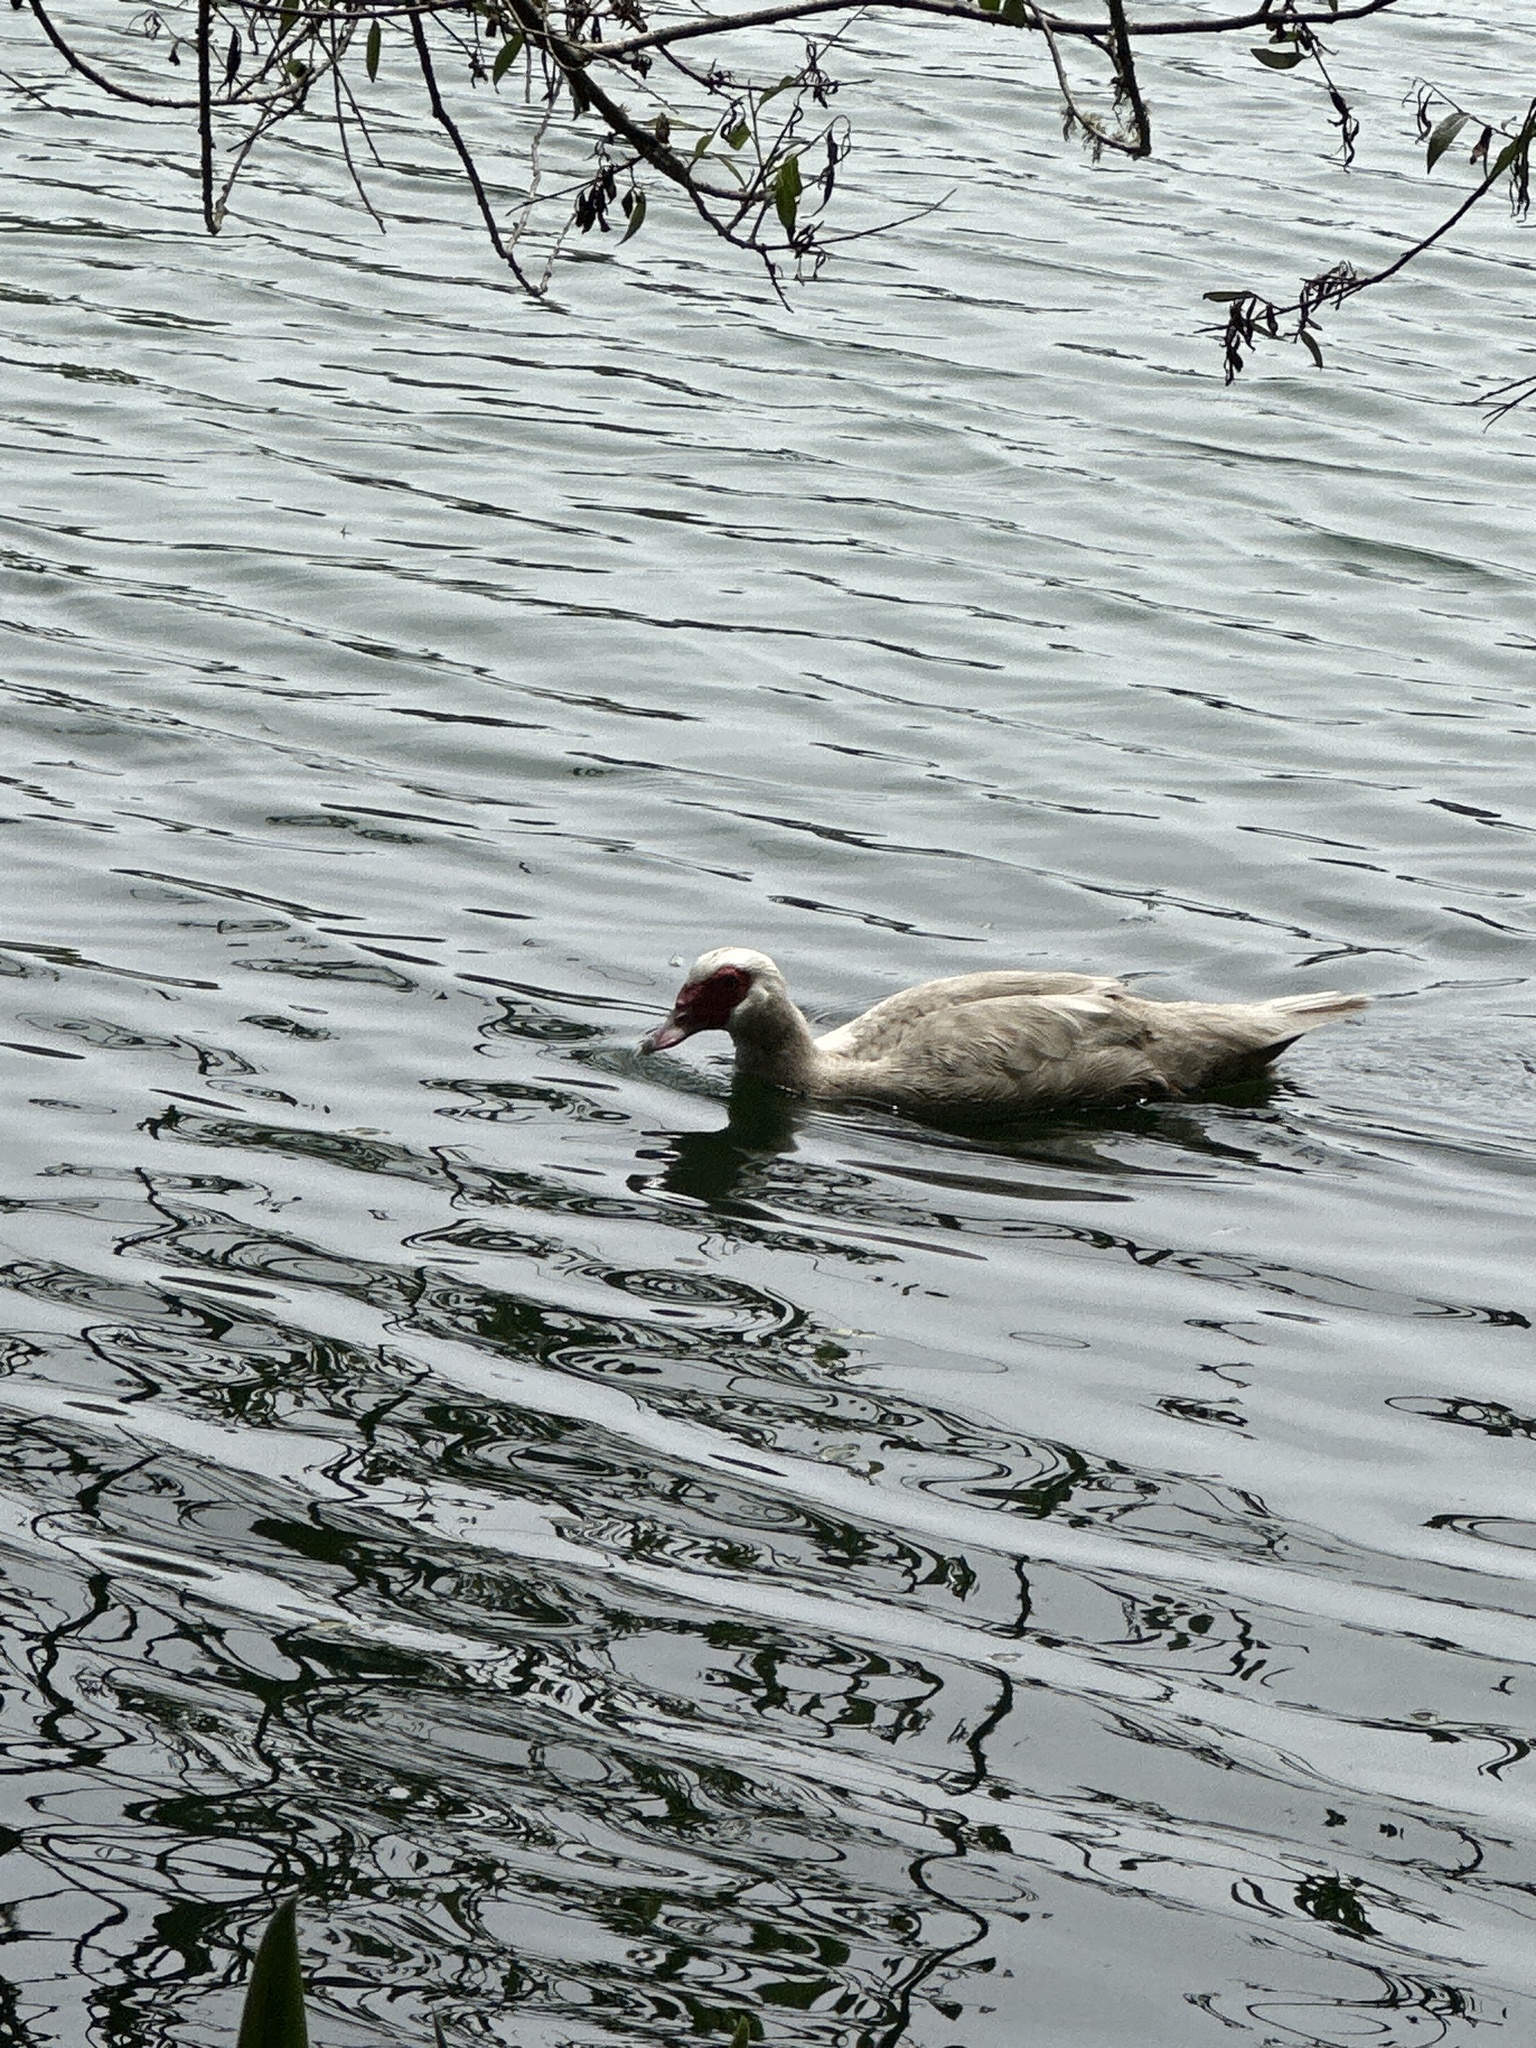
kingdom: Animalia
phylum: Chordata
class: Aves
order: Anseriformes
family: Anatidae
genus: Cairina
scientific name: Cairina moschata
